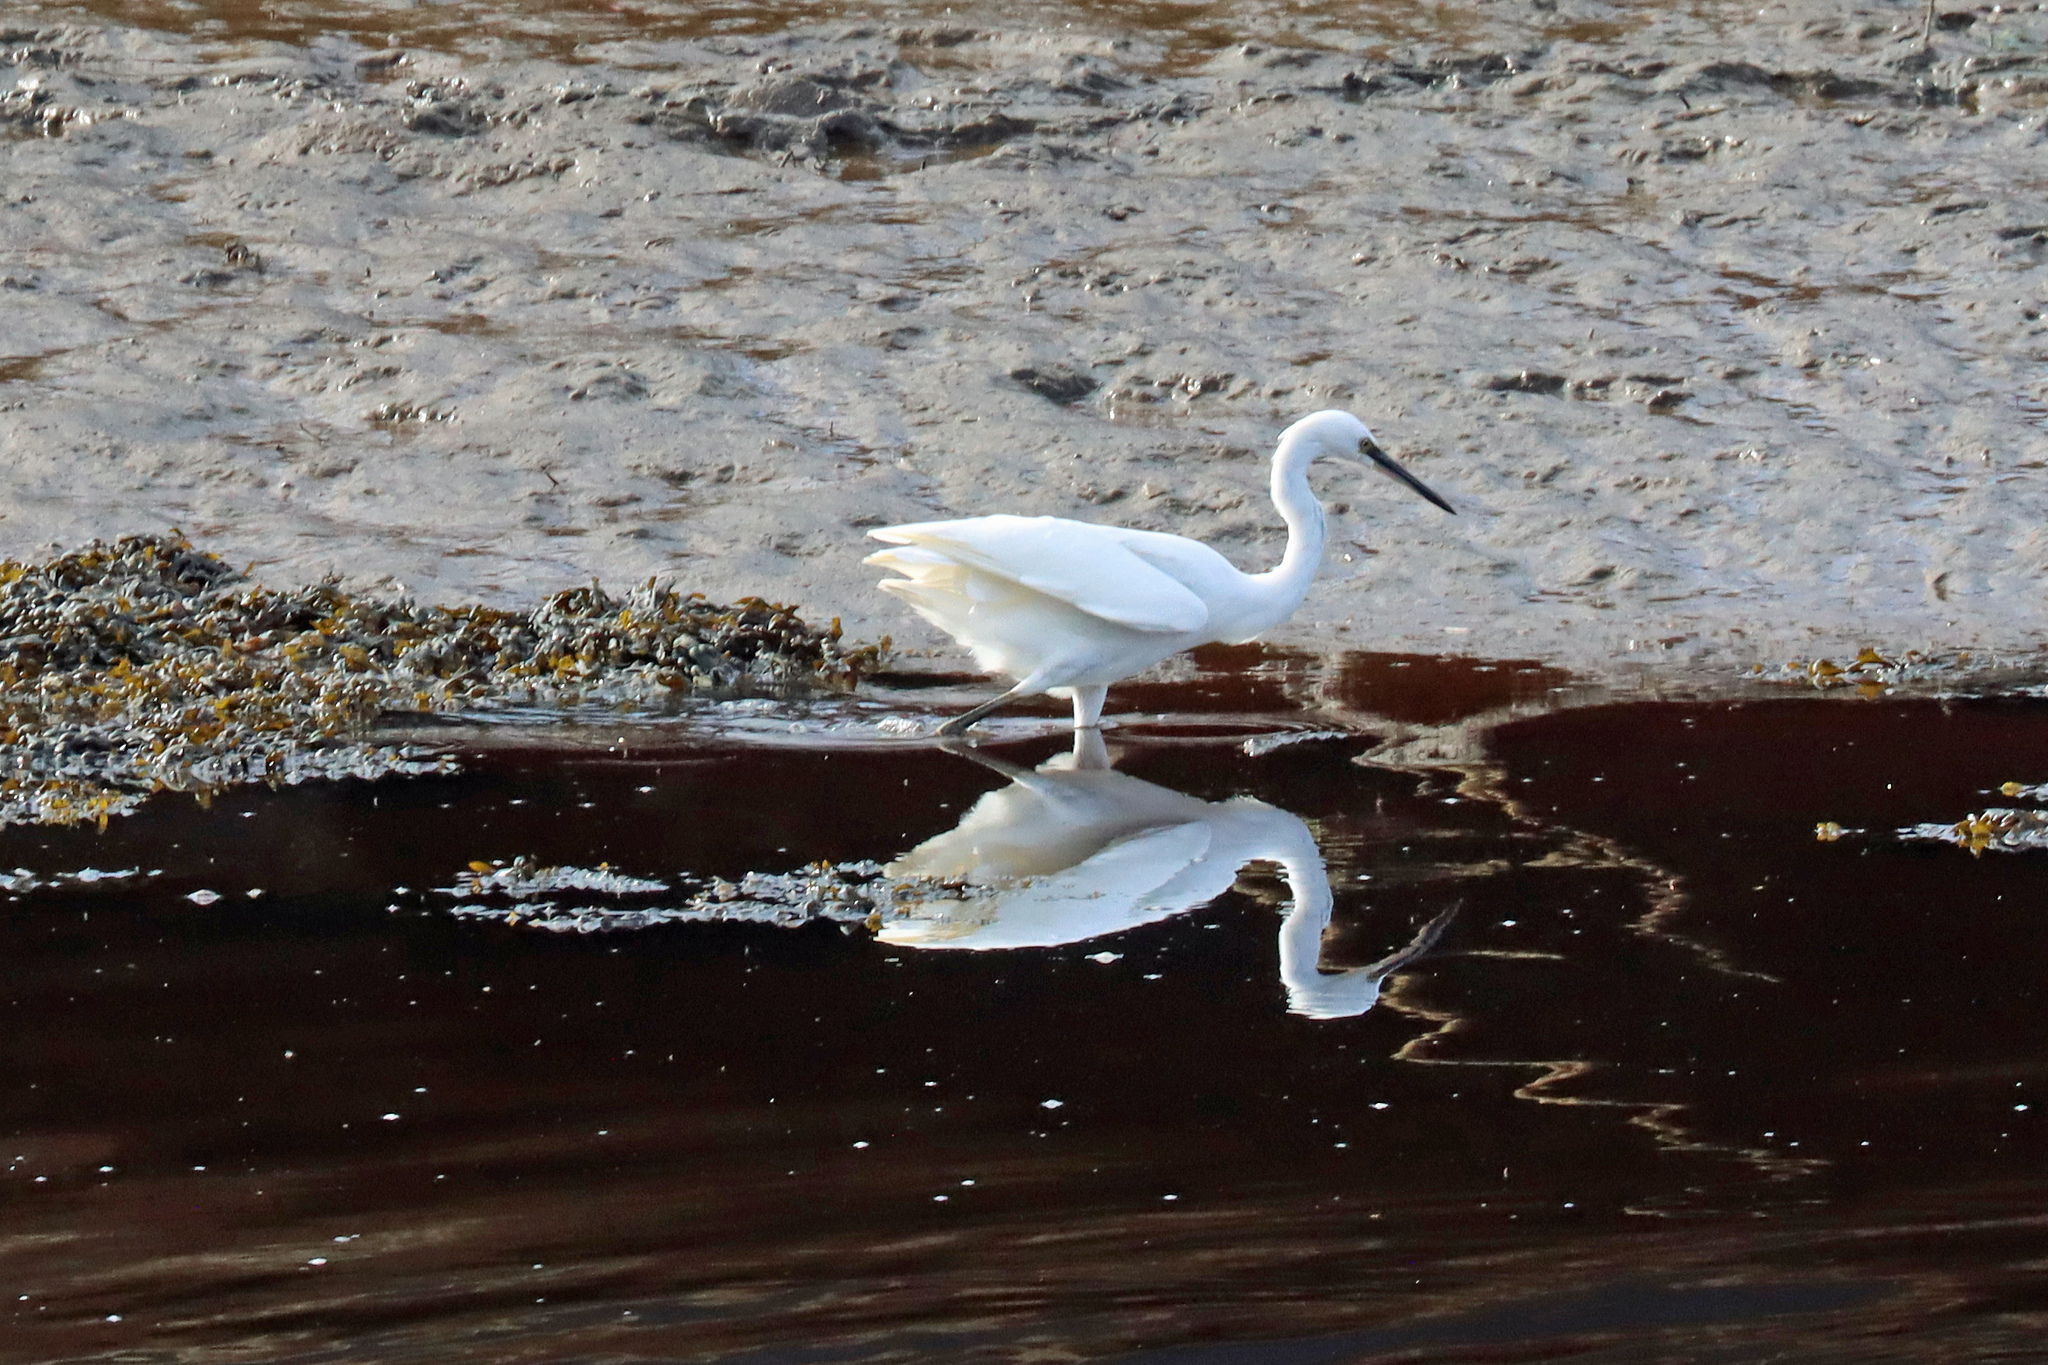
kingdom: Animalia
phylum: Chordata
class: Aves
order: Pelecaniformes
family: Ardeidae
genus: Egretta
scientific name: Egretta garzetta
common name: Little egret
